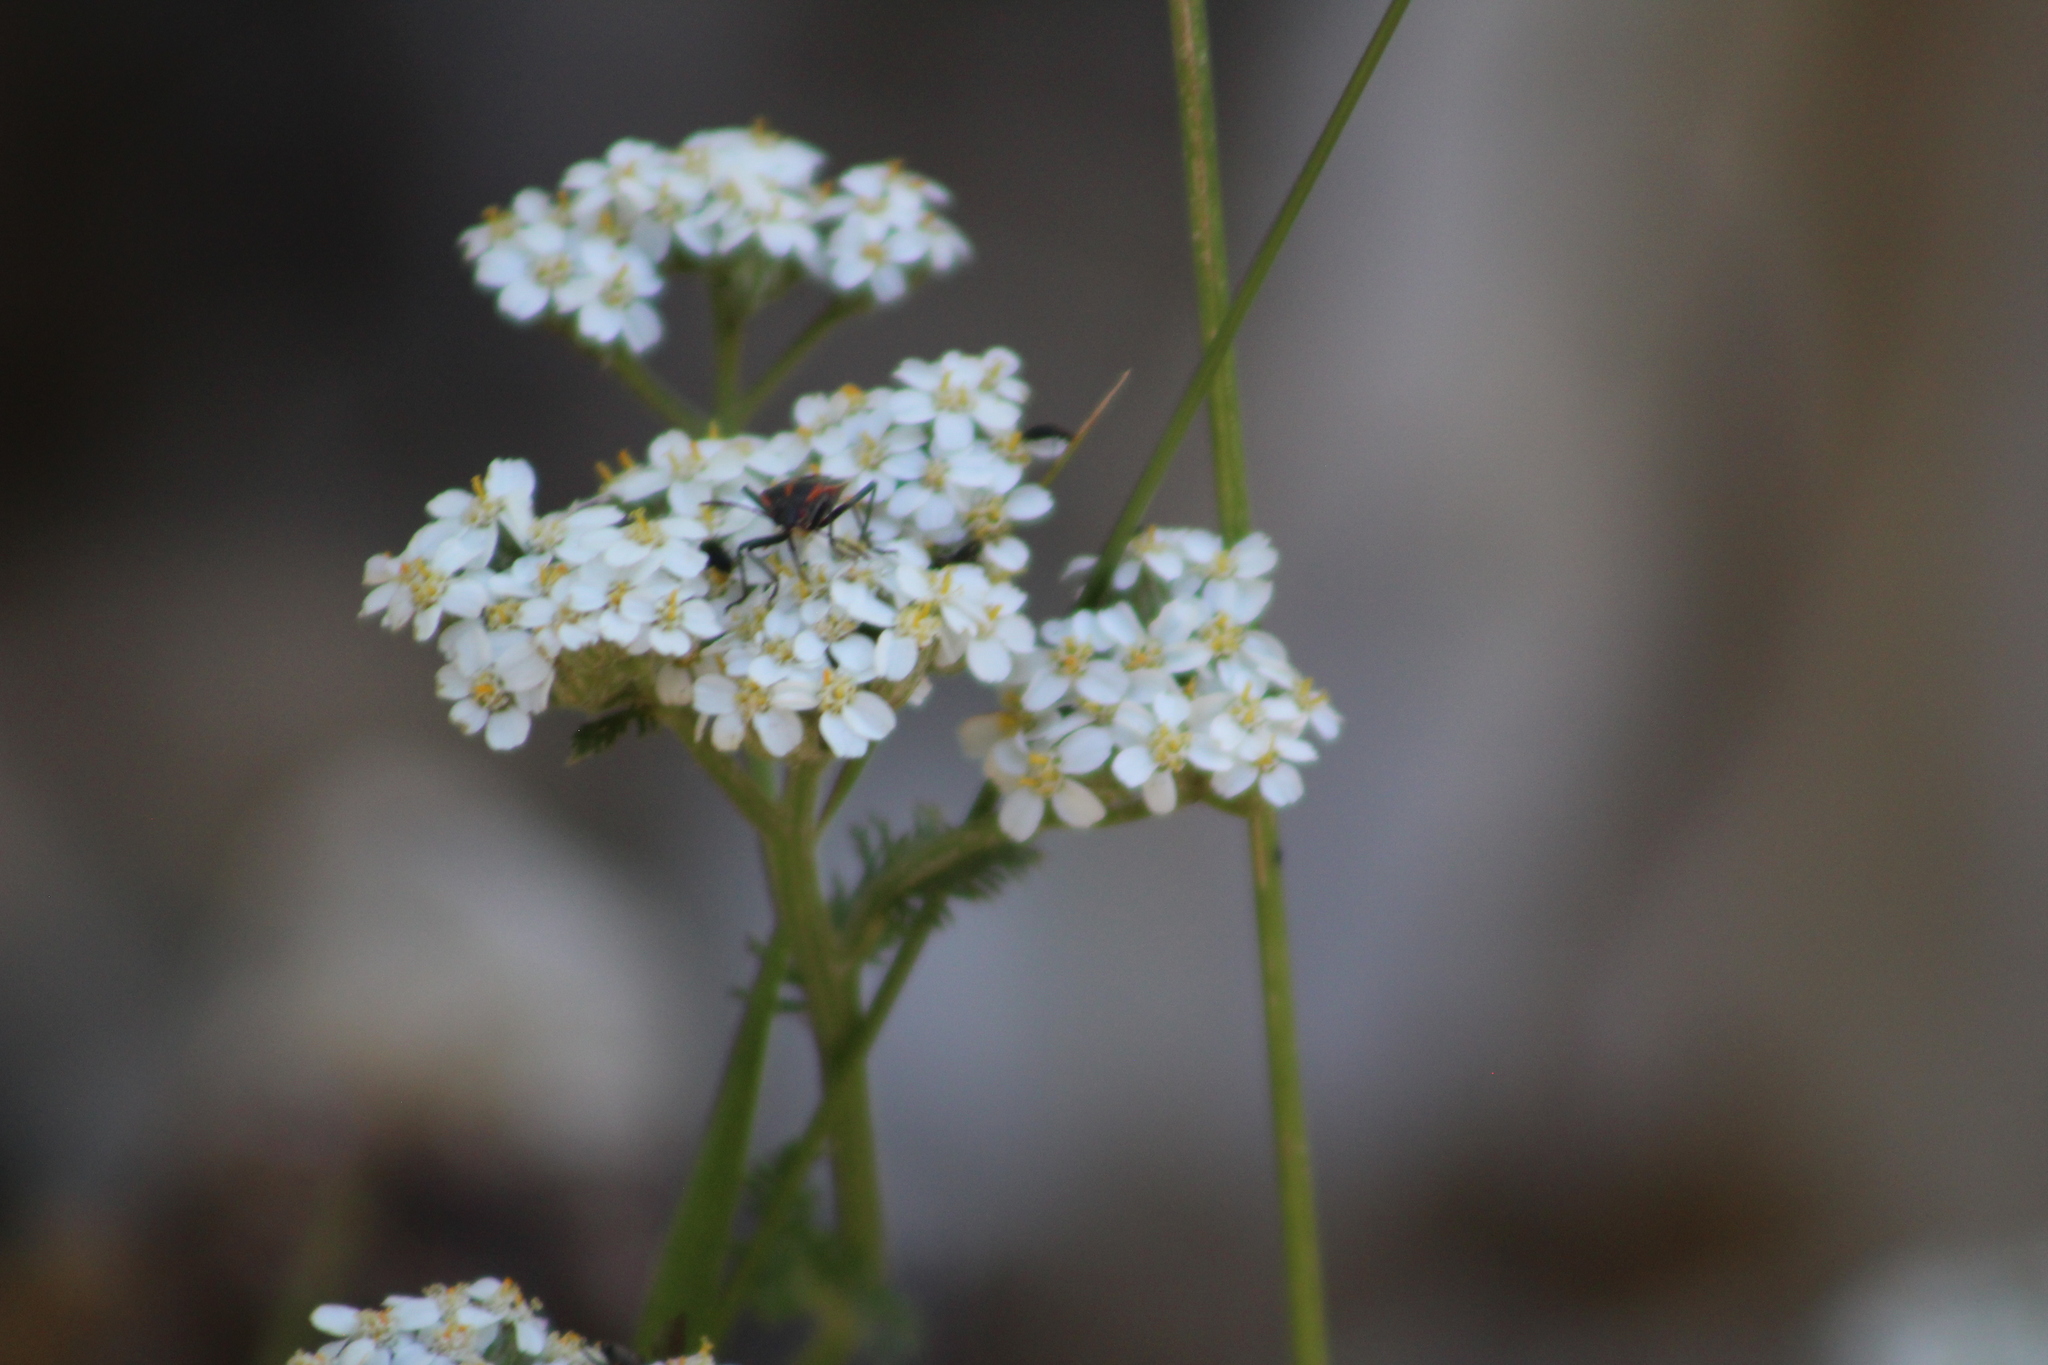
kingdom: Animalia
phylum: Arthropoda
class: Insecta
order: Hemiptera
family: Rhopalidae
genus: Boisea
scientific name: Boisea trivittata
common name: Boxelder bug
